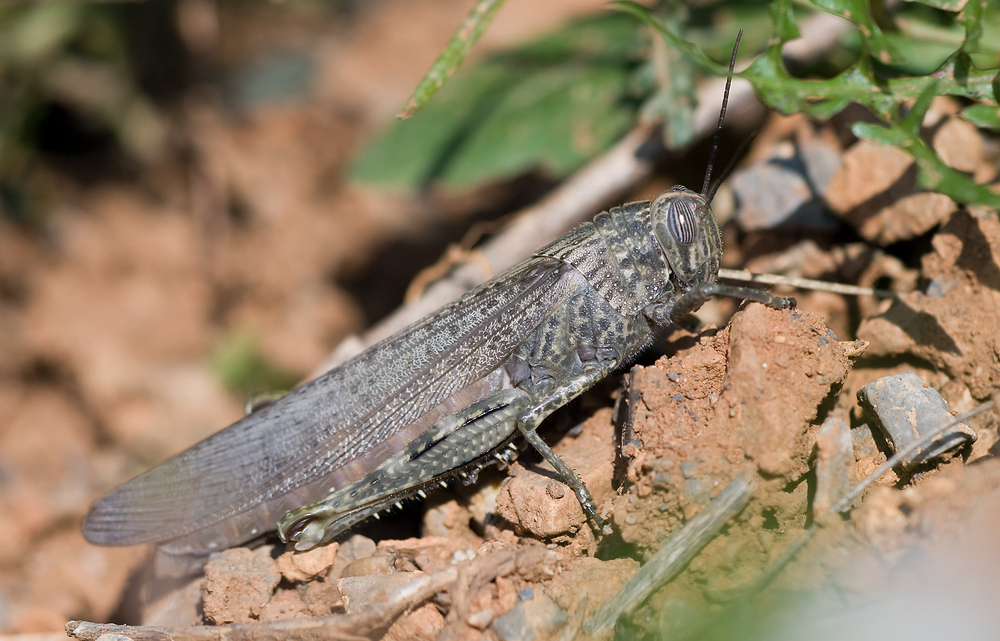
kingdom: Animalia
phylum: Arthropoda
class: Insecta
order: Orthoptera
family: Acrididae
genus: Anacridium
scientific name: Anacridium aegyptium
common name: Egyptian grasshopper
